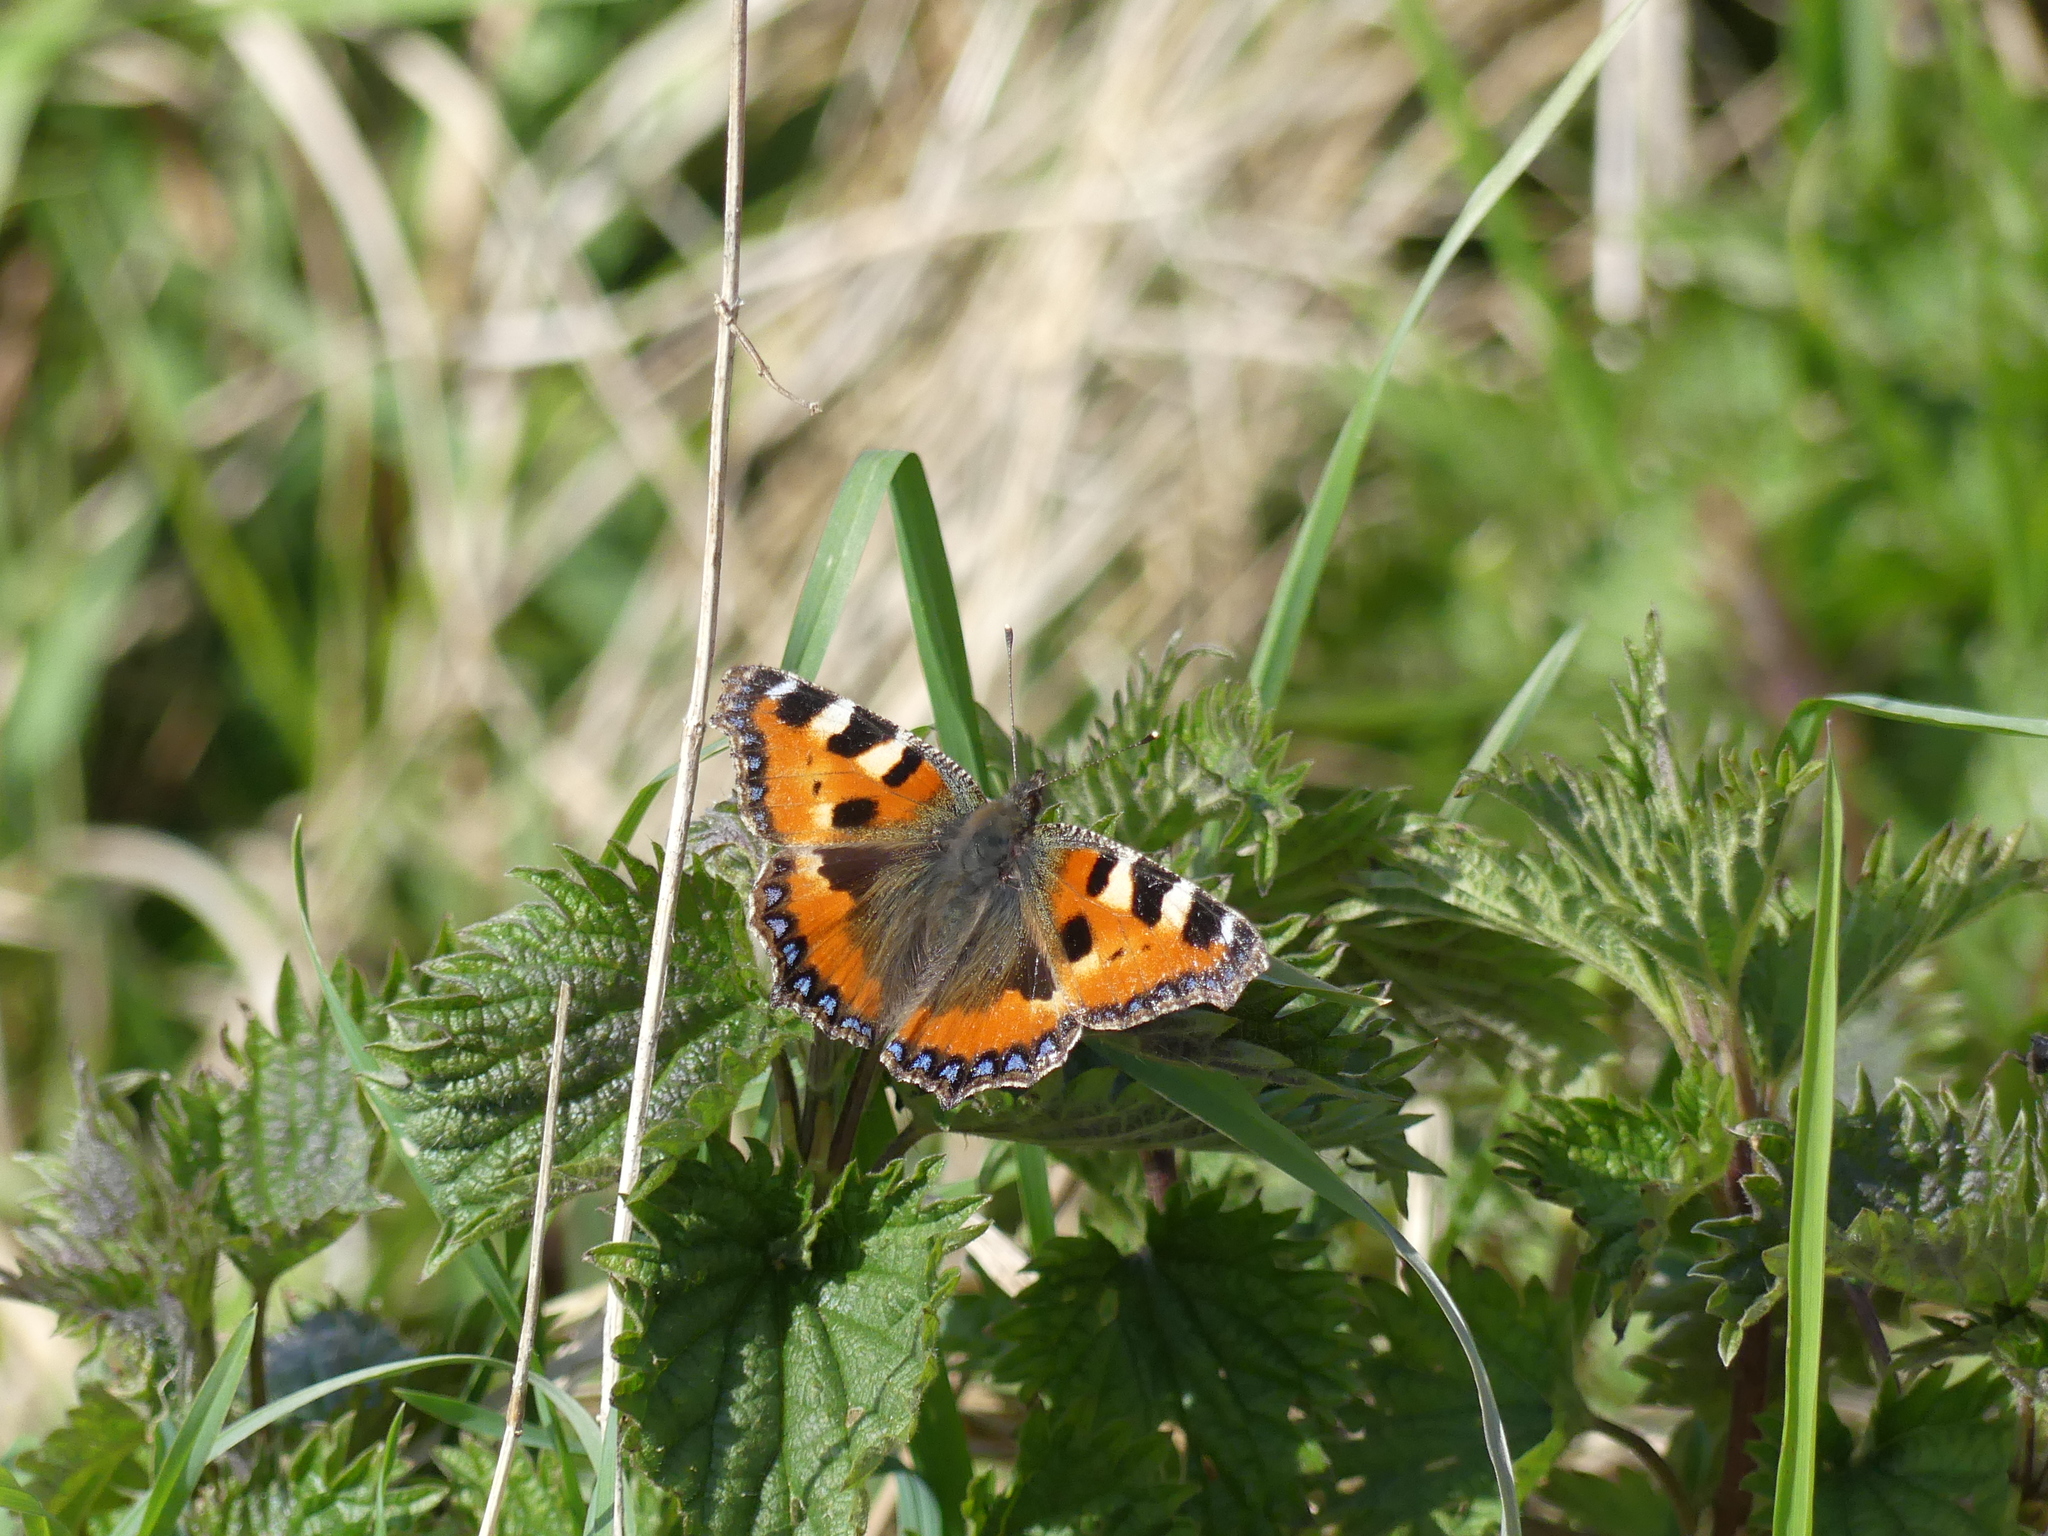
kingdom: Animalia
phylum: Arthropoda
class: Insecta
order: Lepidoptera
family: Nymphalidae
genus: Aglais
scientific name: Aglais urticae
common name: Small tortoiseshell
